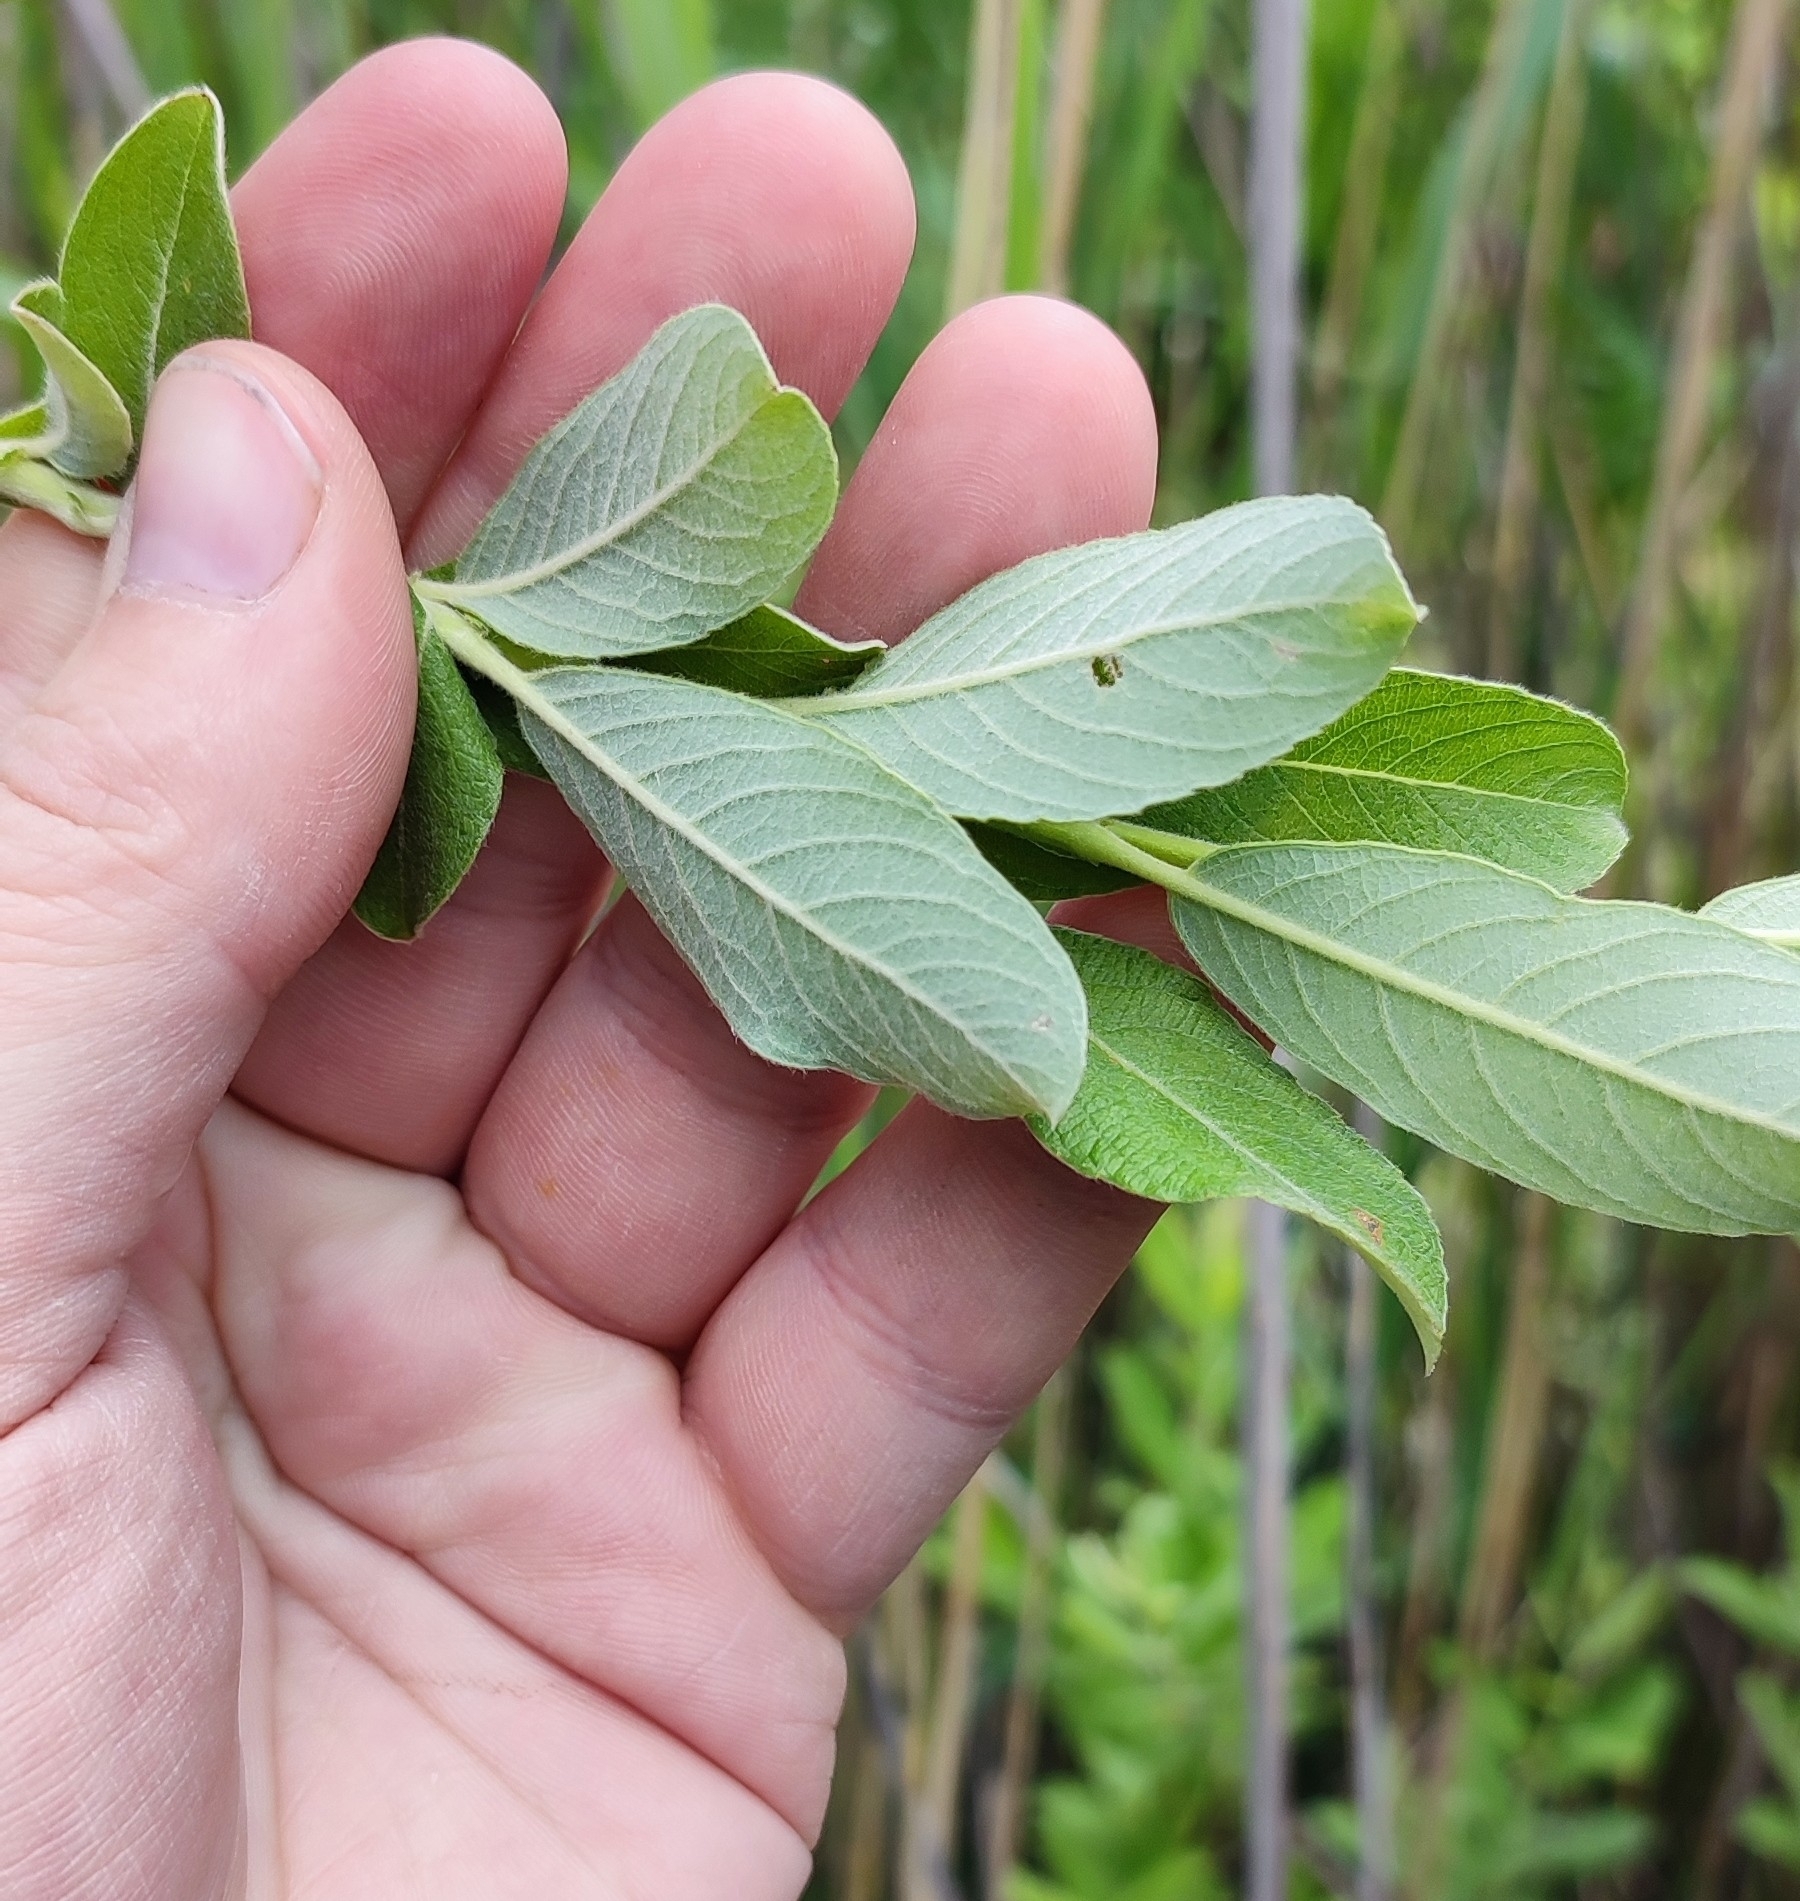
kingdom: Plantae
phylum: Tracheophyta
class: Magnoliopsida
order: Malpighiales
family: Salicaceae
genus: Salix
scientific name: Salix cinerea
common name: Common sallow
